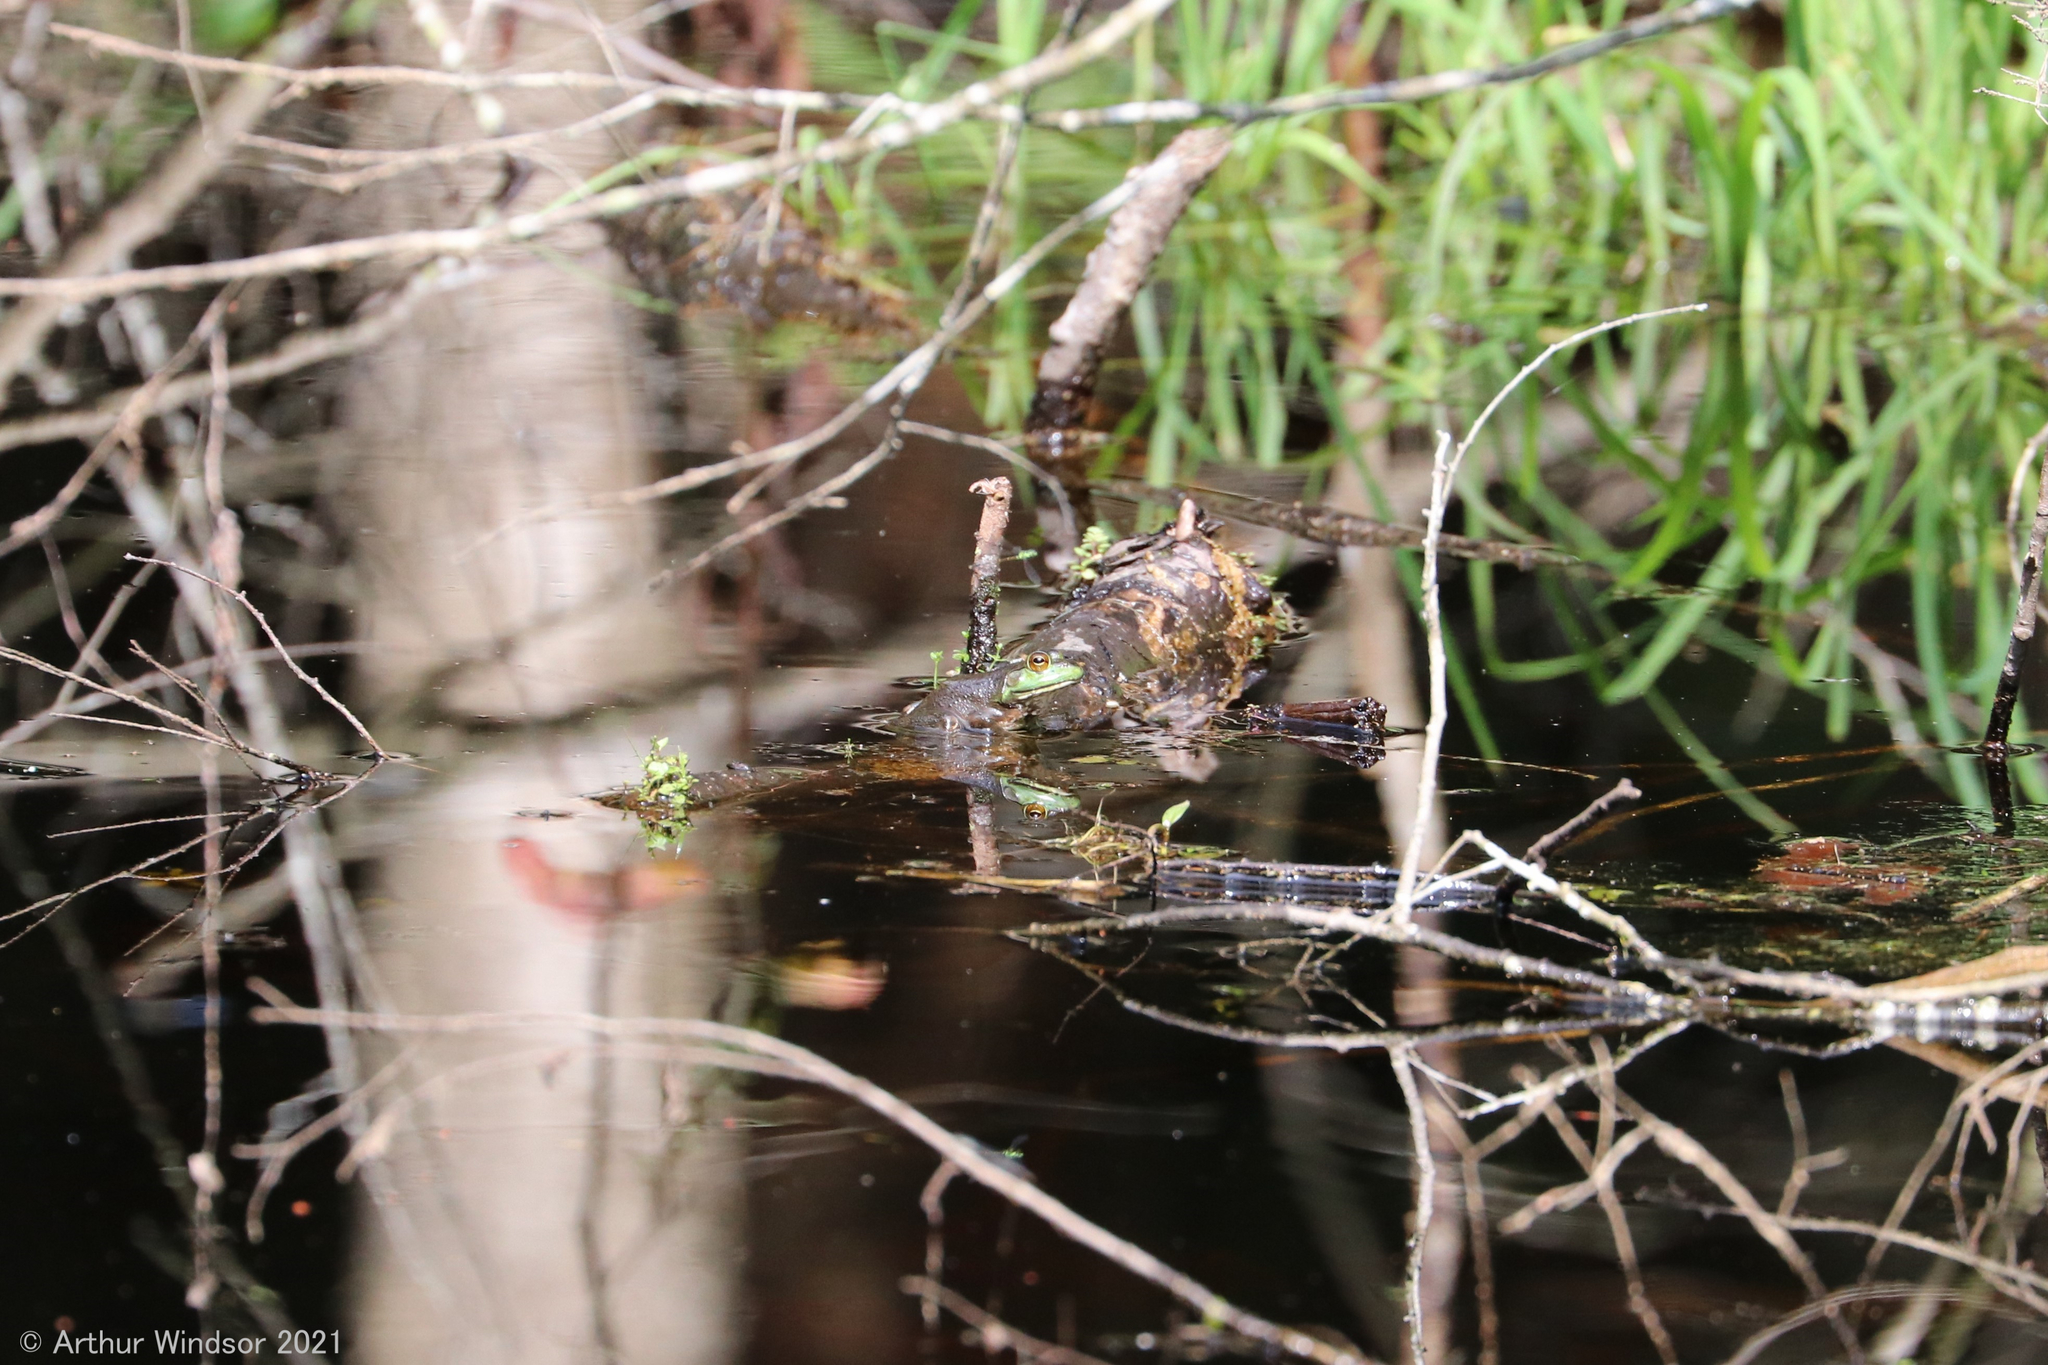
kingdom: Animalia
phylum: Chordata
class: Amphibia
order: Anura
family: Ranidae
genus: Lithobates
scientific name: Lithobates catesbeianus
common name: American bullfrog
